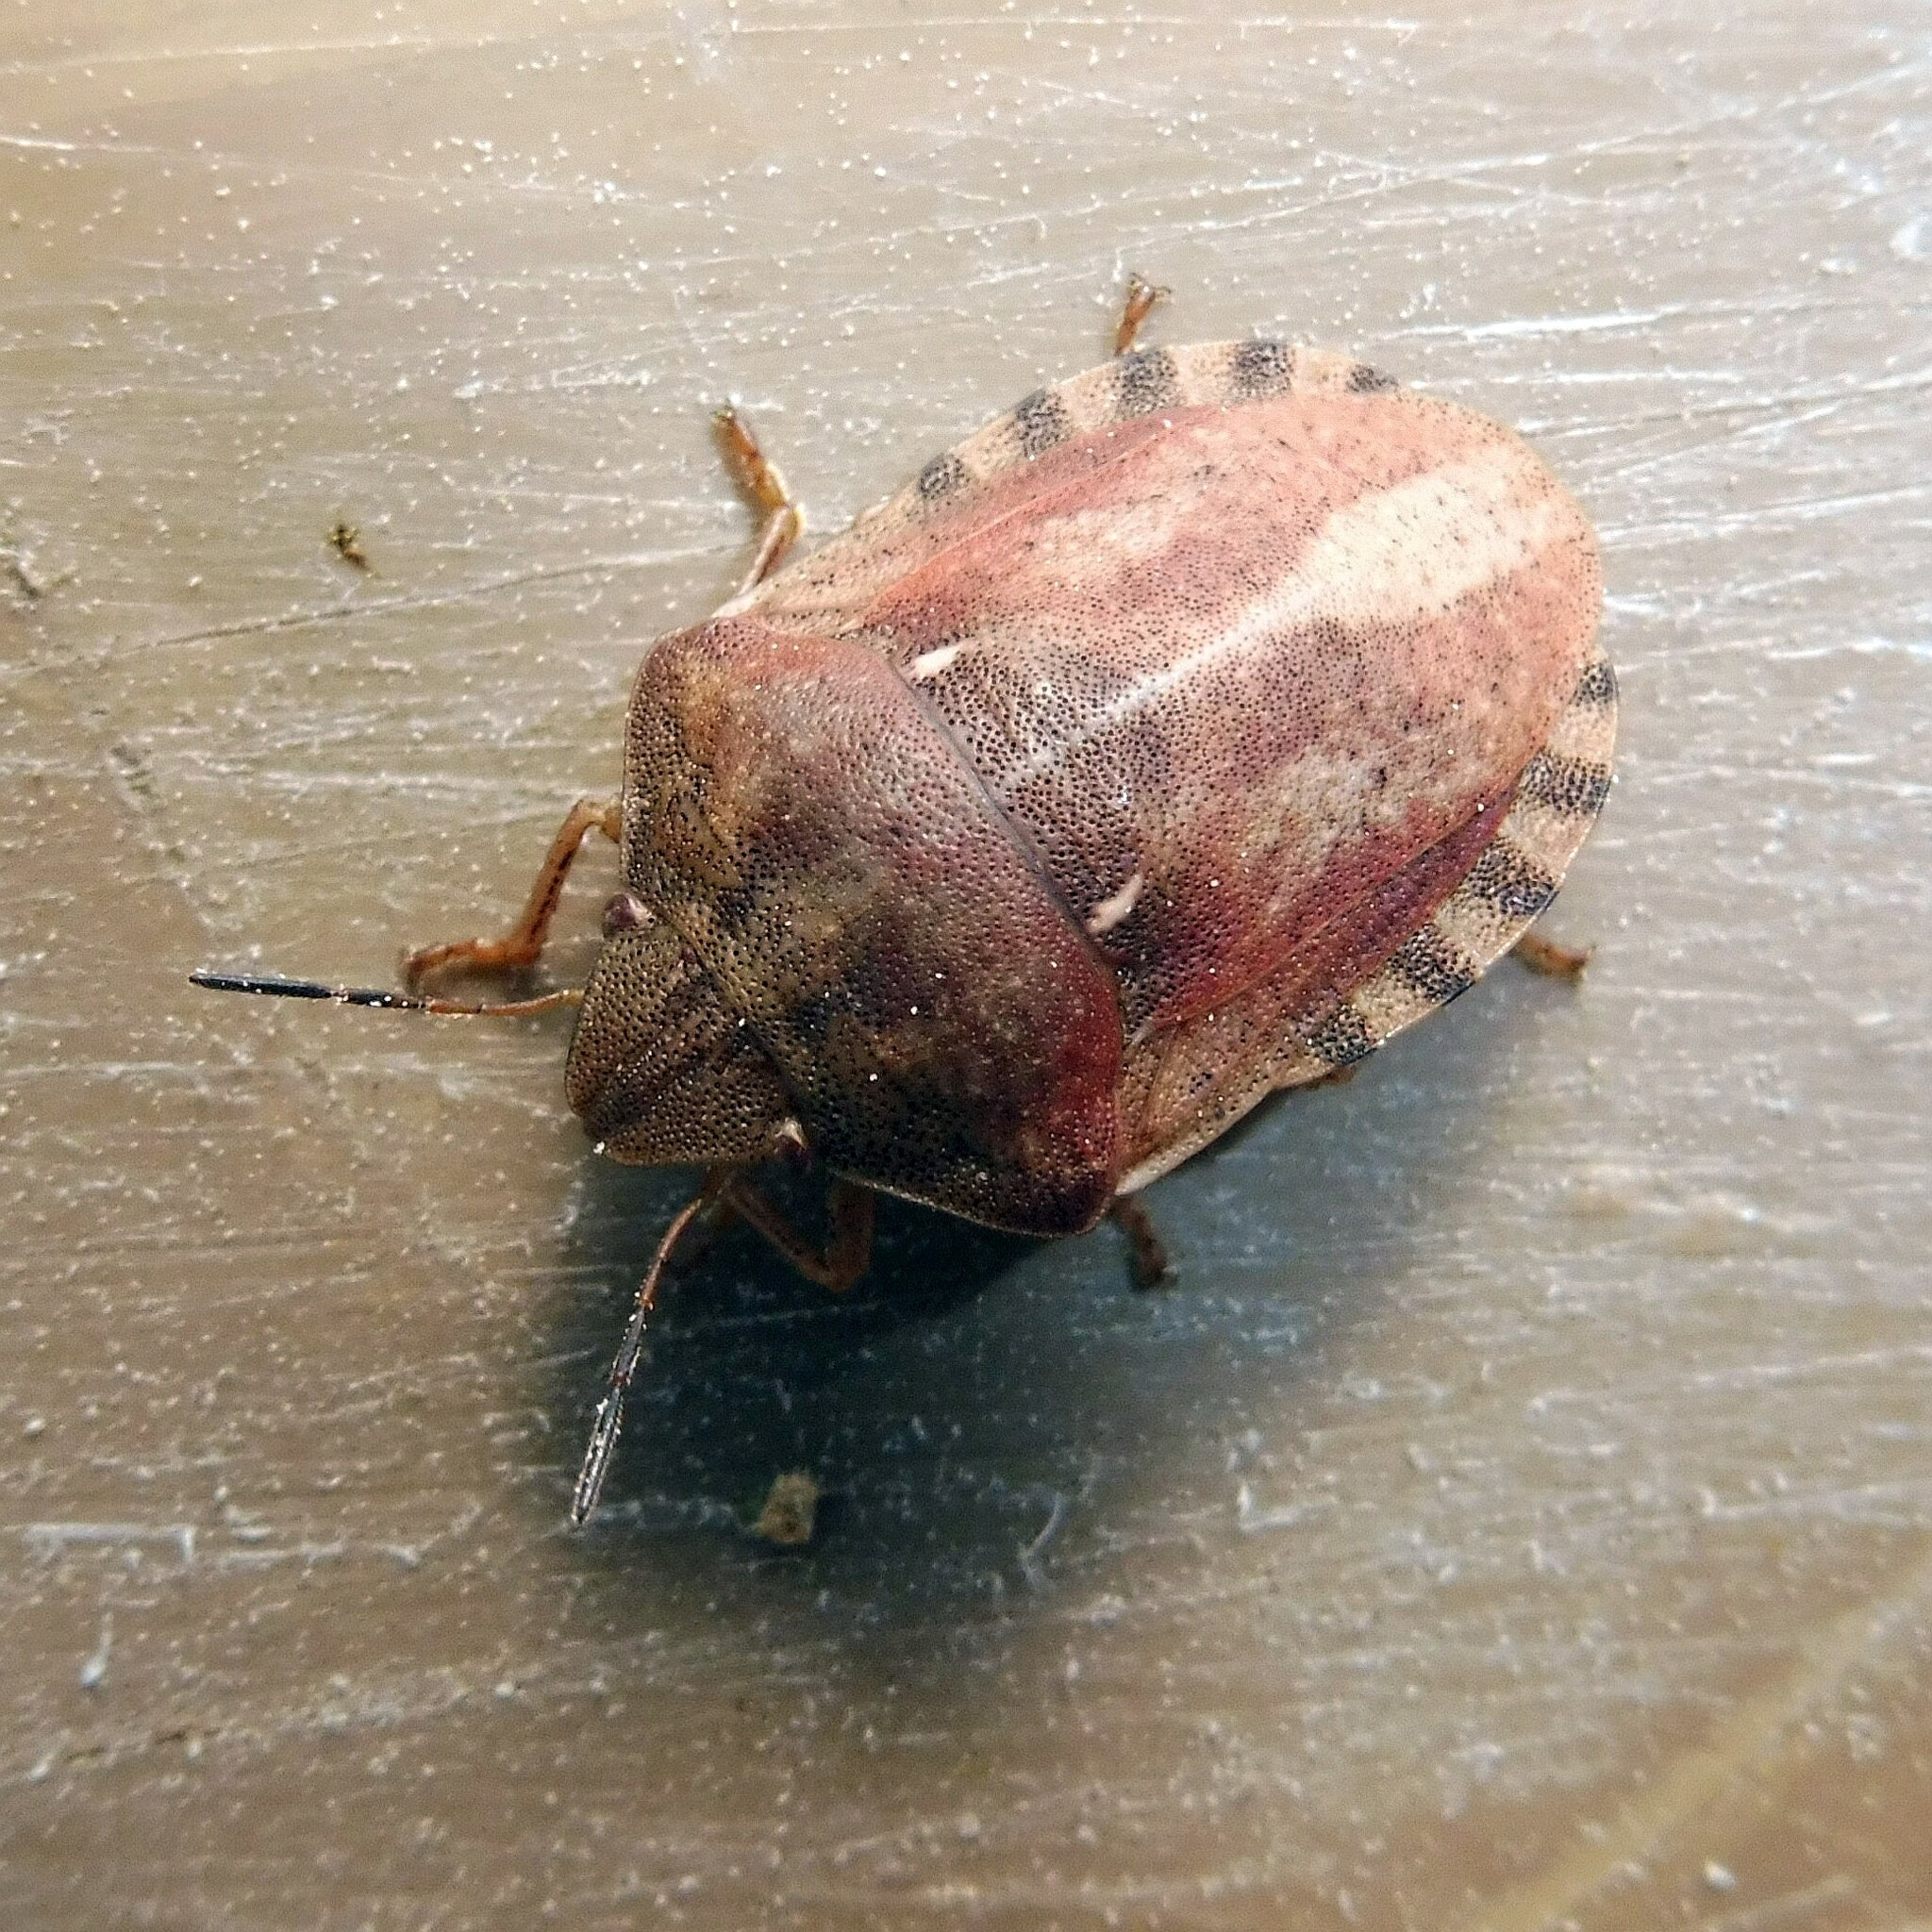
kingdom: Animalia
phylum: Arthropoda
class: Insecta
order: Hemiptera
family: Scutelleridae
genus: Eurygaster
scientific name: Eurygaster testudinaria
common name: Tortoise bug
